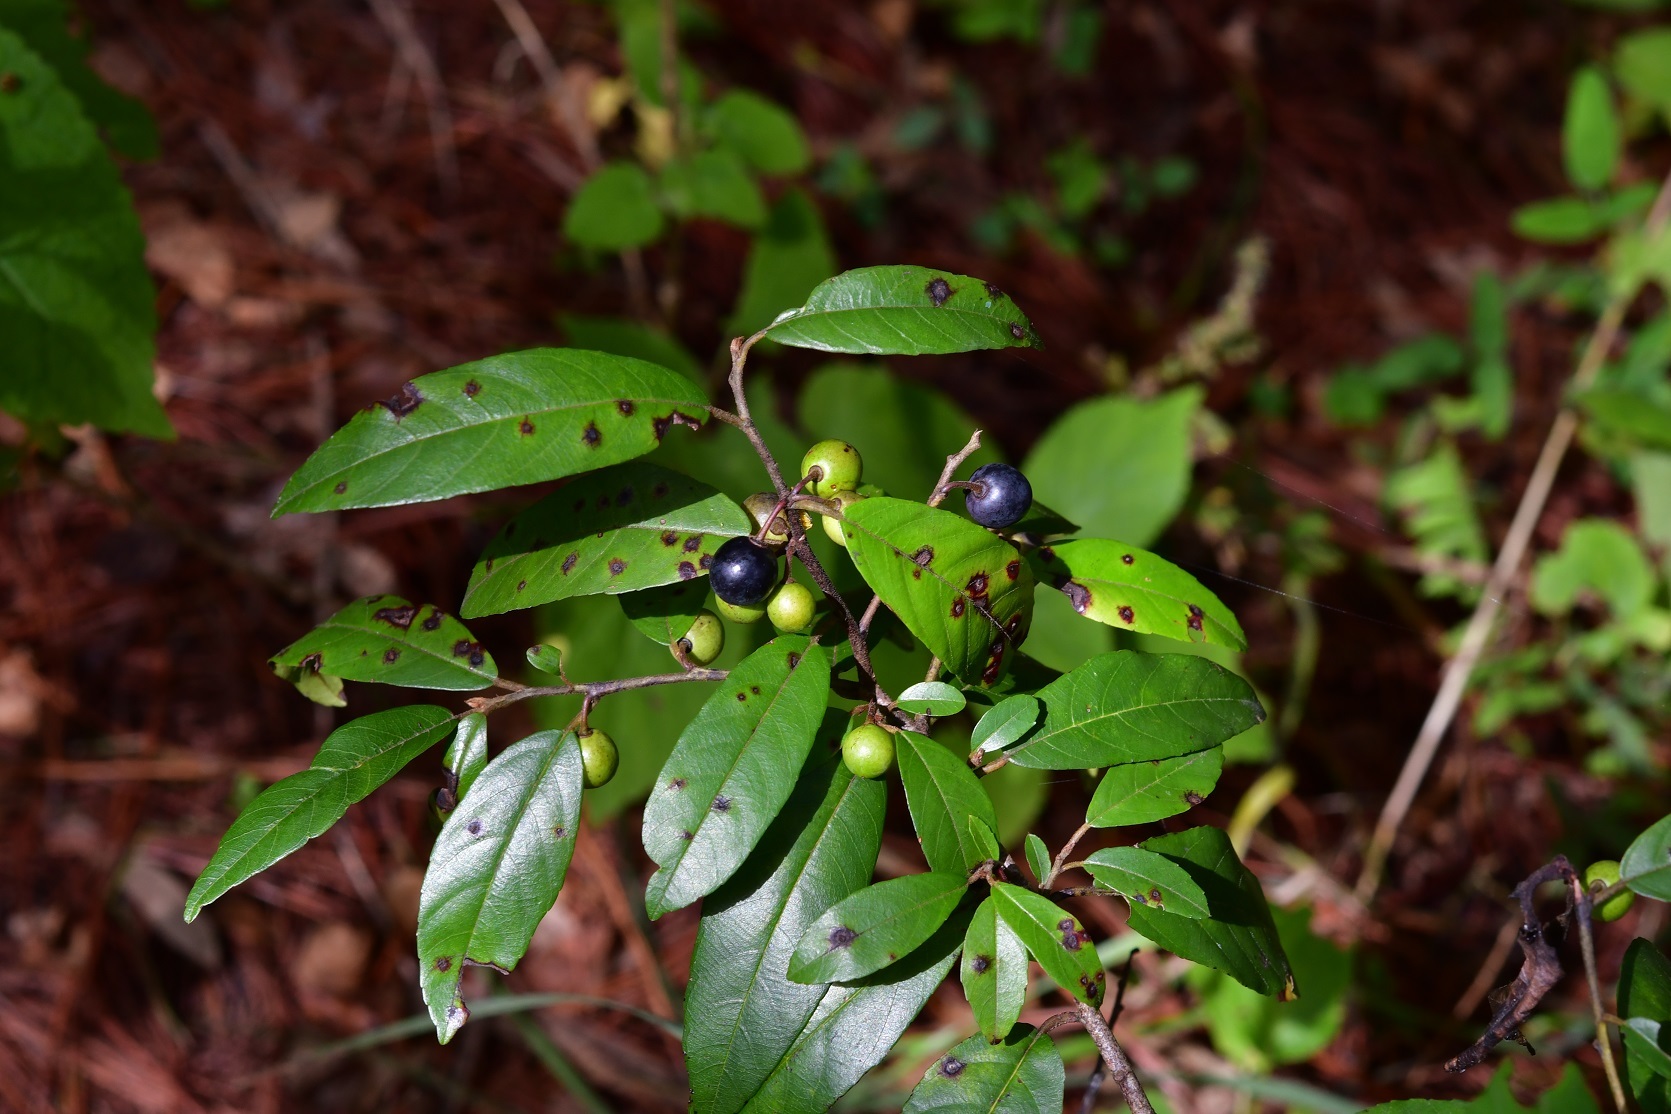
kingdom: Plantae
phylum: Tracheophyta
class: Magnoliopsida
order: Rosales
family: Rhamnaceae
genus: Frangula
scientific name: Frangula mucronata
